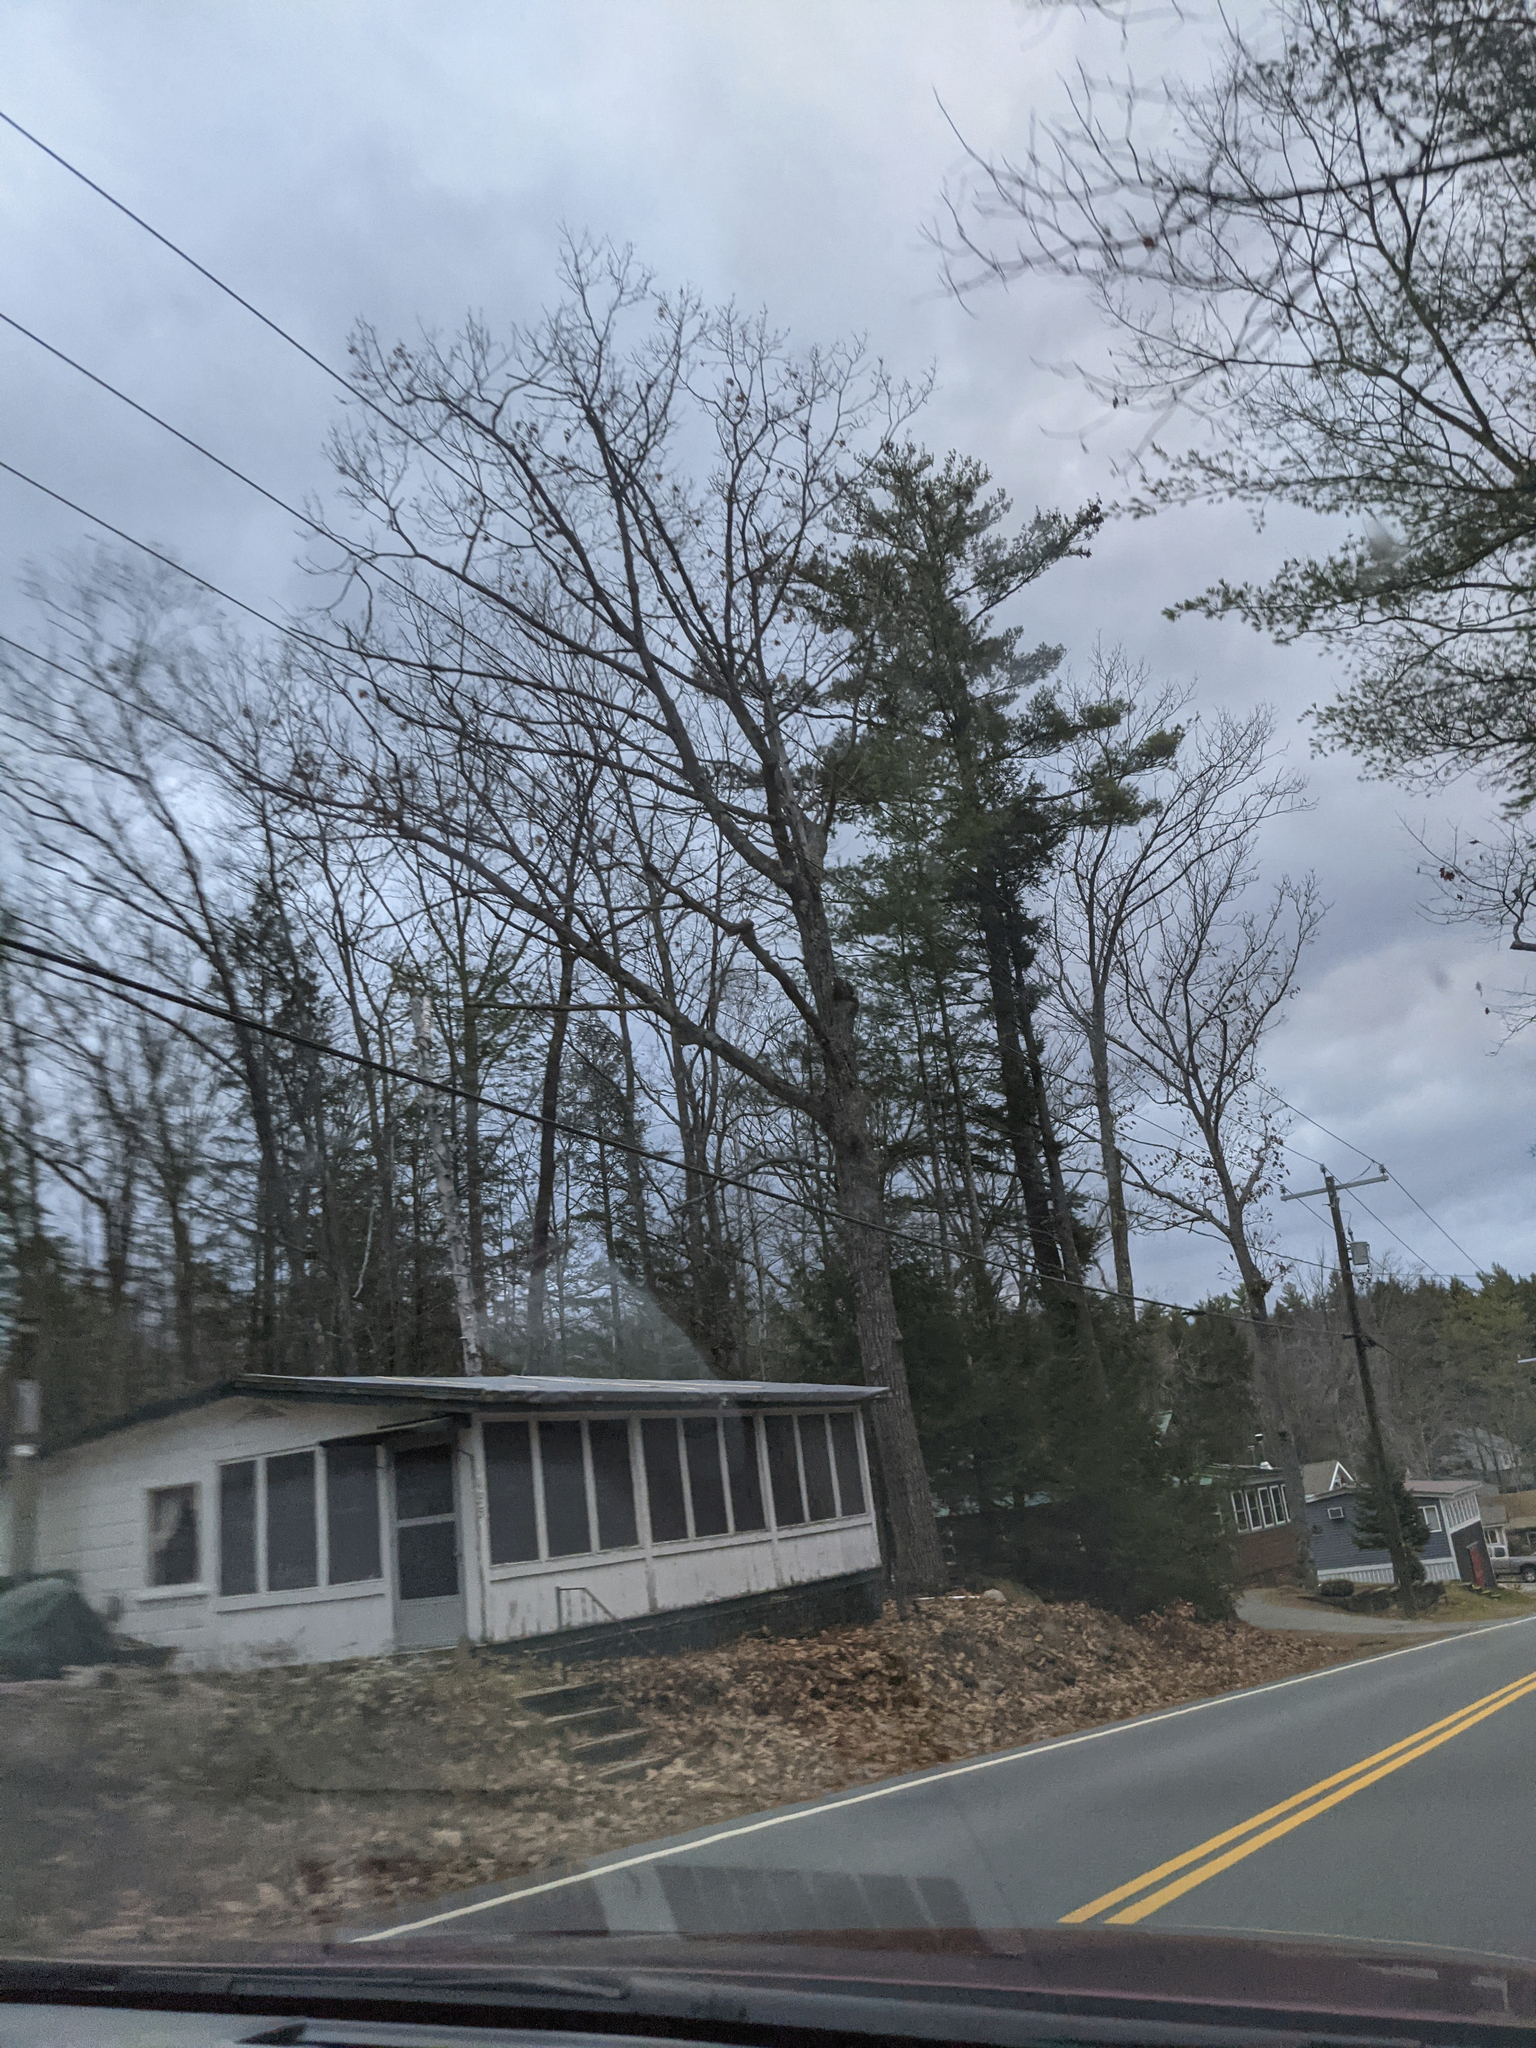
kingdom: Plantae
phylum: Tracheophyta
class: Pinopsida
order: Pinales
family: Pinaceae
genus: Pinus
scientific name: Pinus strobus
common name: Weymouth pine
